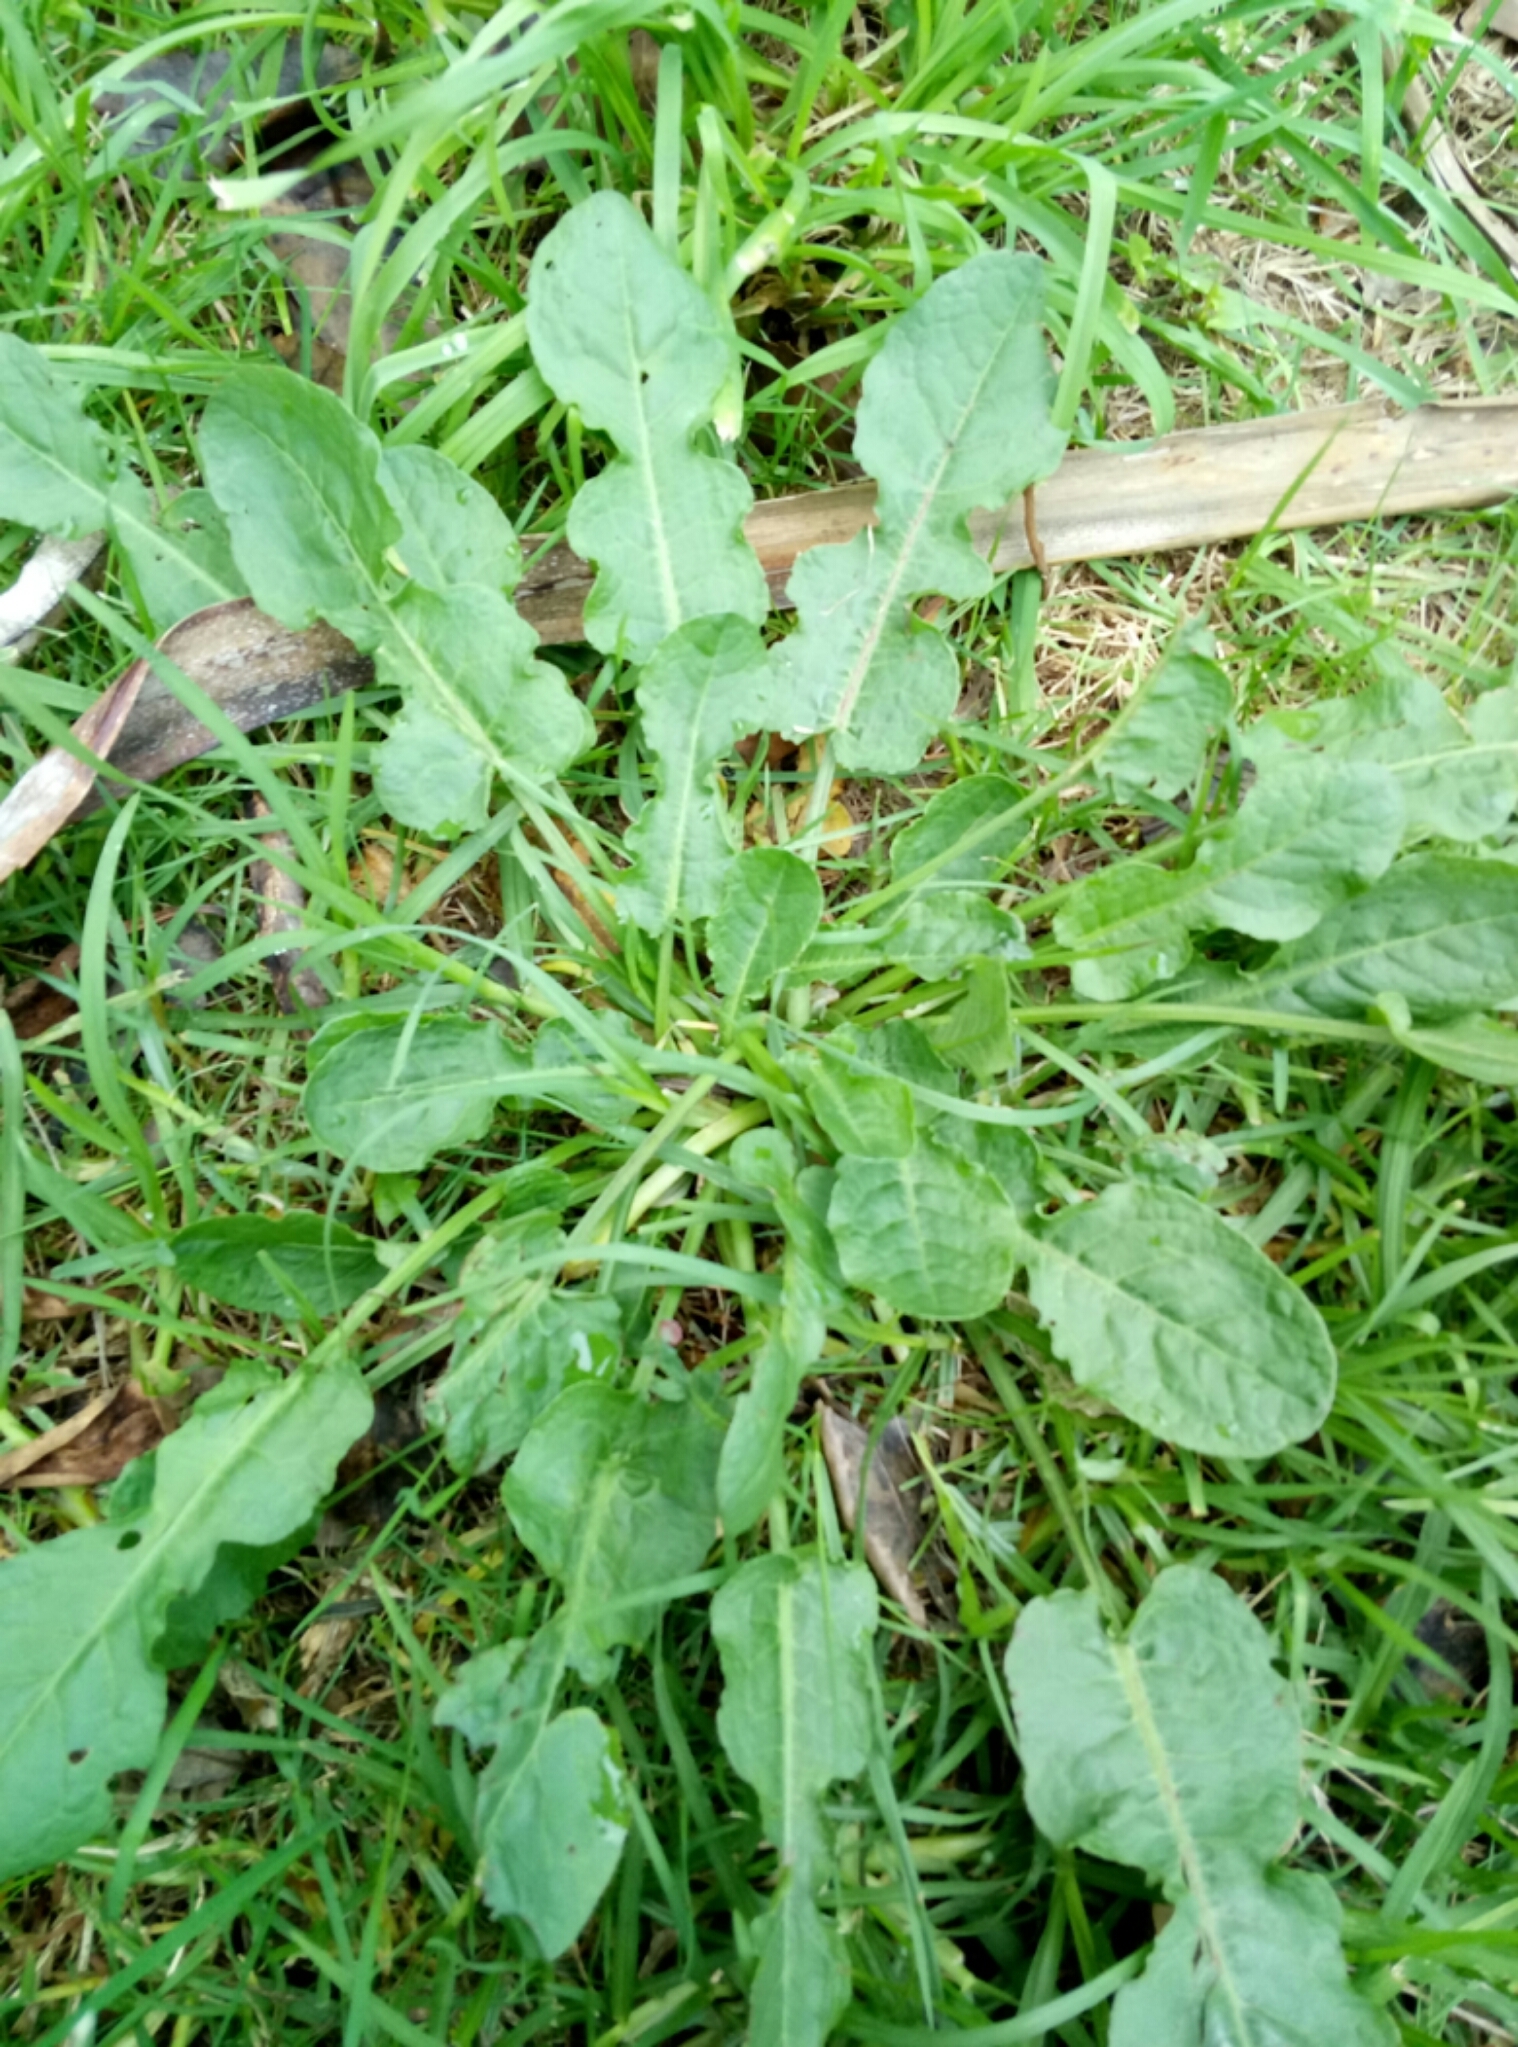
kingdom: Plantae
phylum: Tracheophyta
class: Magnoliopsida
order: Caryophyllales
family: Polygonaceae
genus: Rumex
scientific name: Rumex pulcher
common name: Fiddle dock
